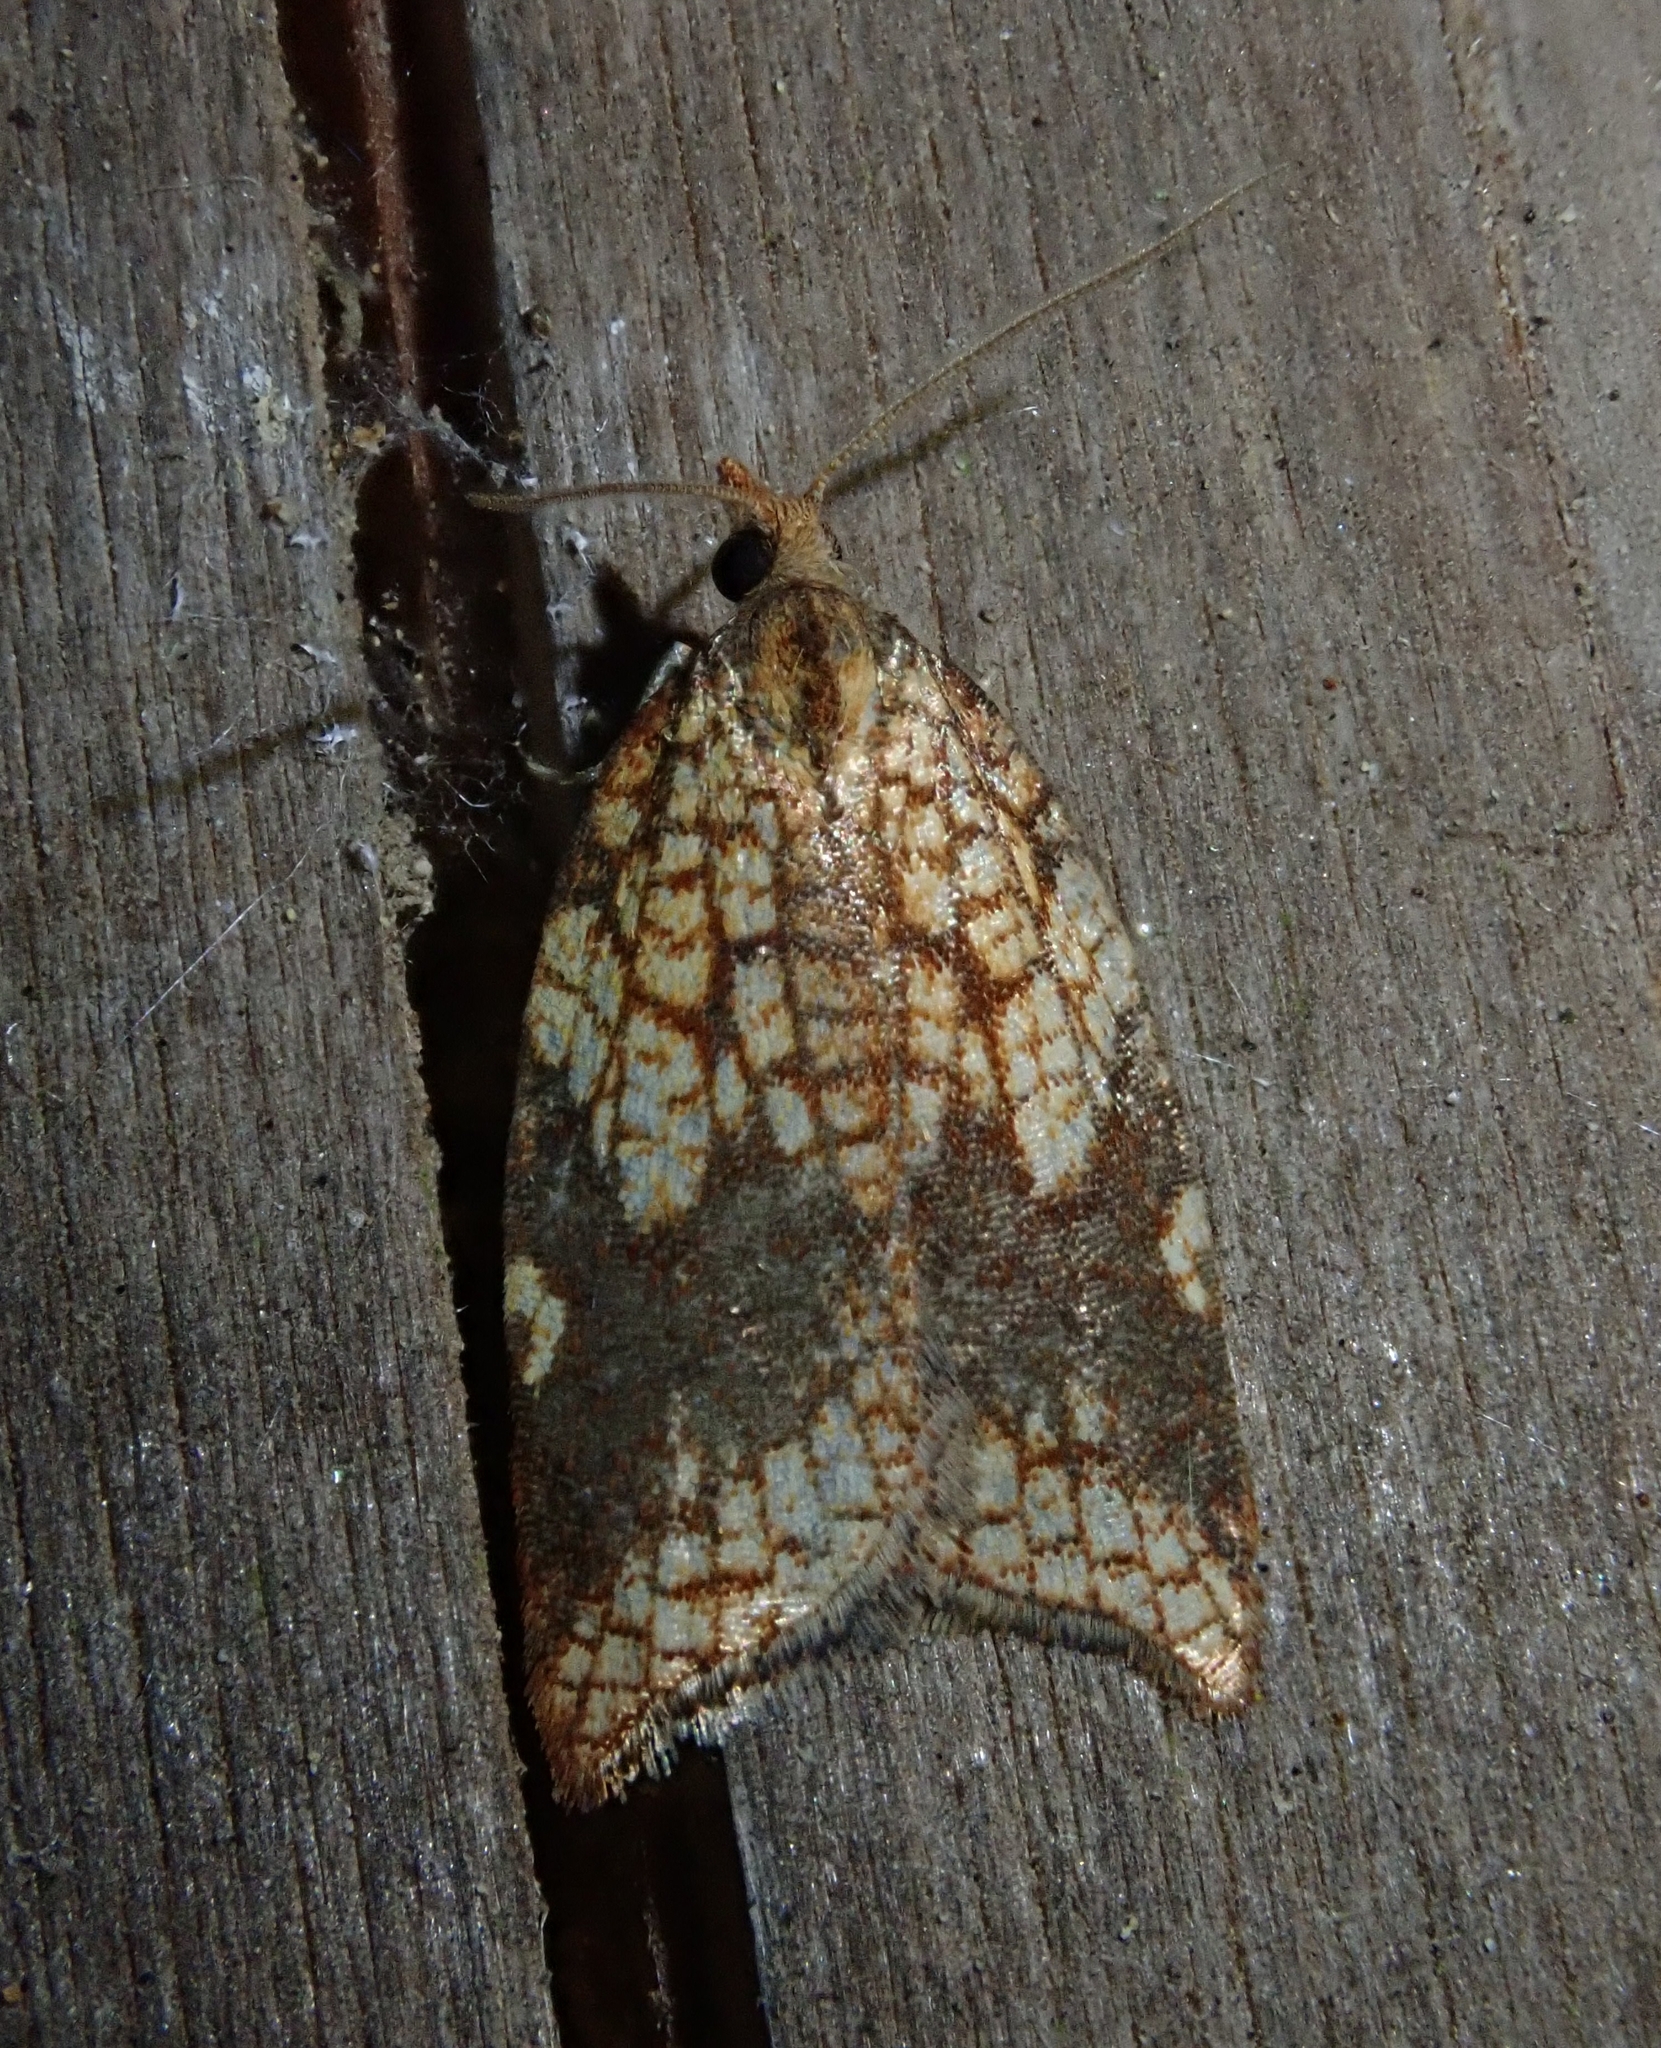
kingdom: Animalia
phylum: Arthropoda
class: Insecta
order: Lepidoptera
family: Tortricidae
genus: Acleris
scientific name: Acleris rhombana
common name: Tortricid moth
